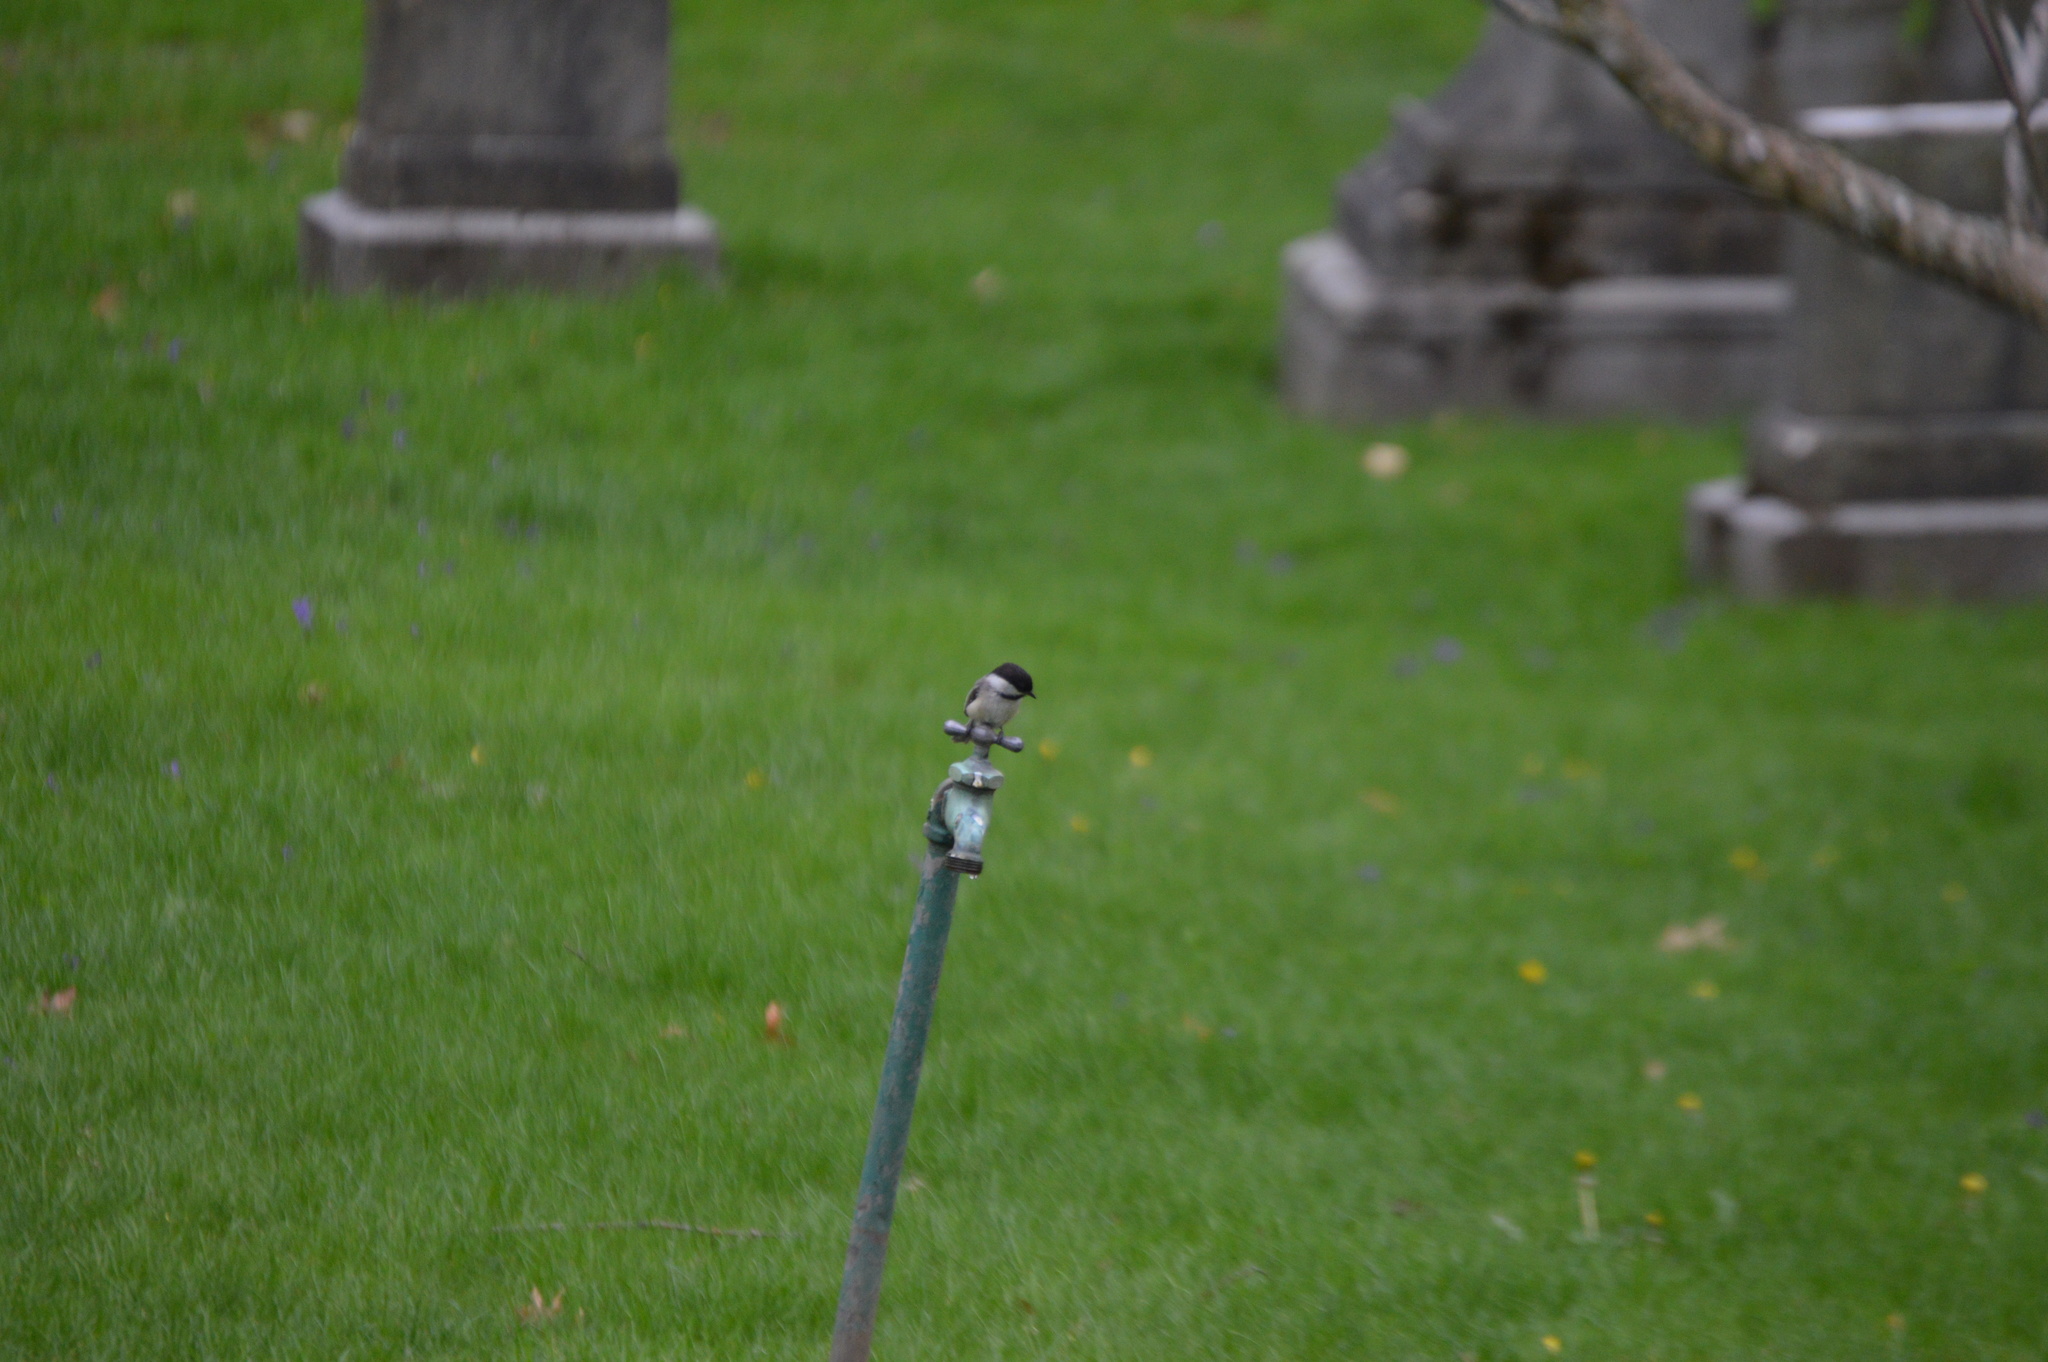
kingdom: Animalia
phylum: Chordata
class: Aves
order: Passeriformes
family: Paridae
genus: Poecile
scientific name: Poecile atricapillus
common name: Black-capped chickadee
